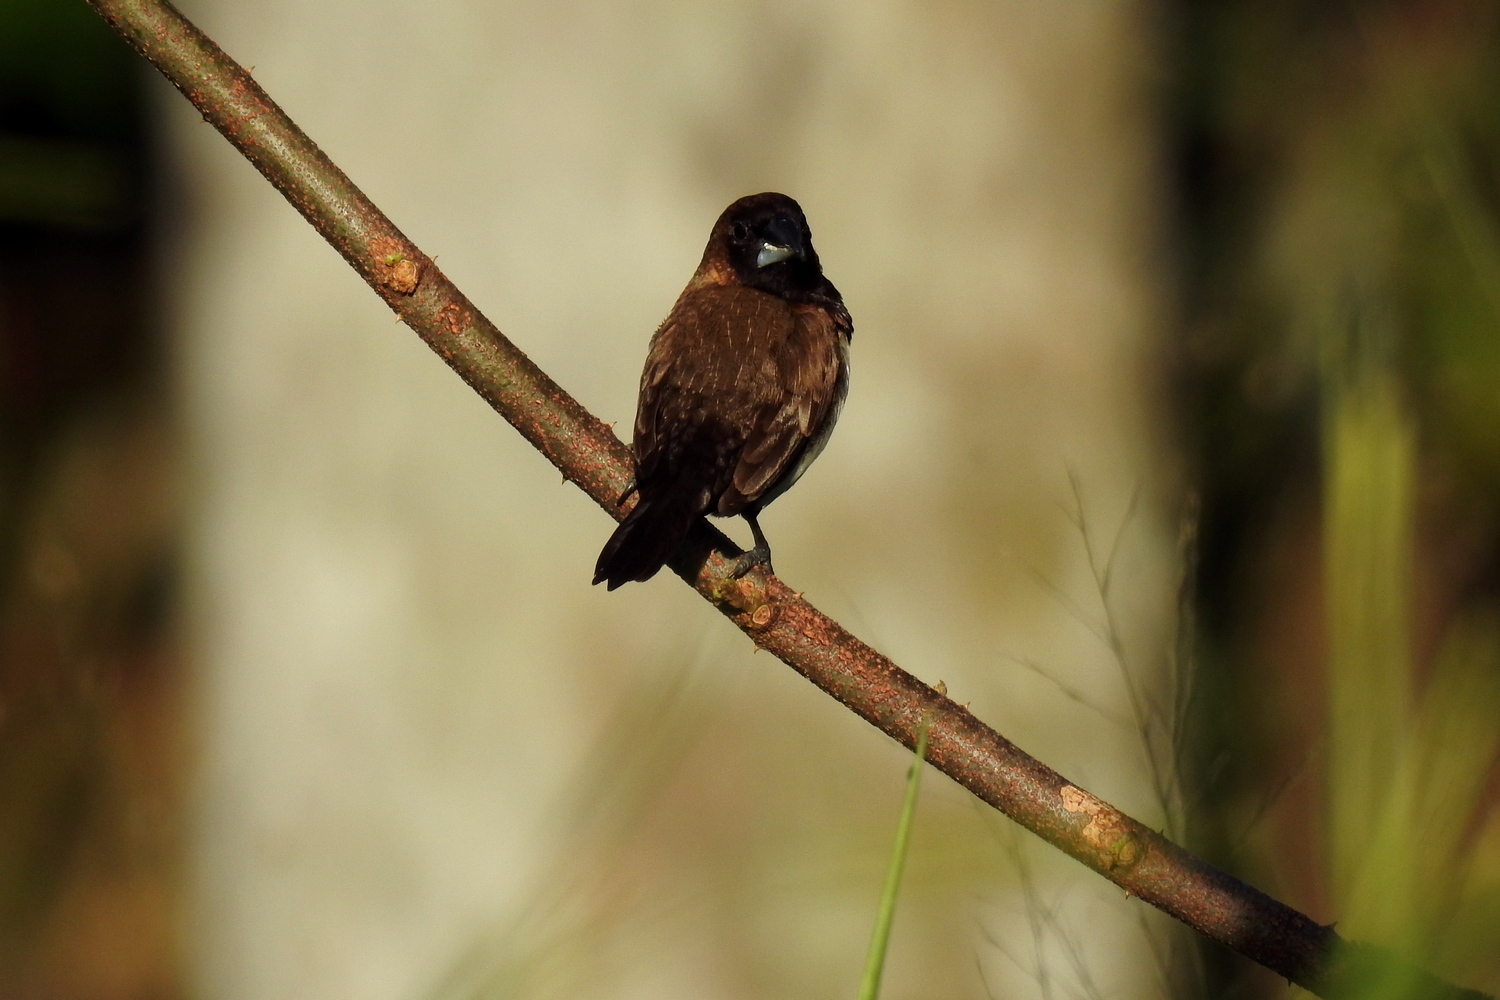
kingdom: Animalia
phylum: Chordata
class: Aves
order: Passeriformes
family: Estrildidae
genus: Lonchura
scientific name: Lonchura punctulata
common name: Scaly-breasted munia
